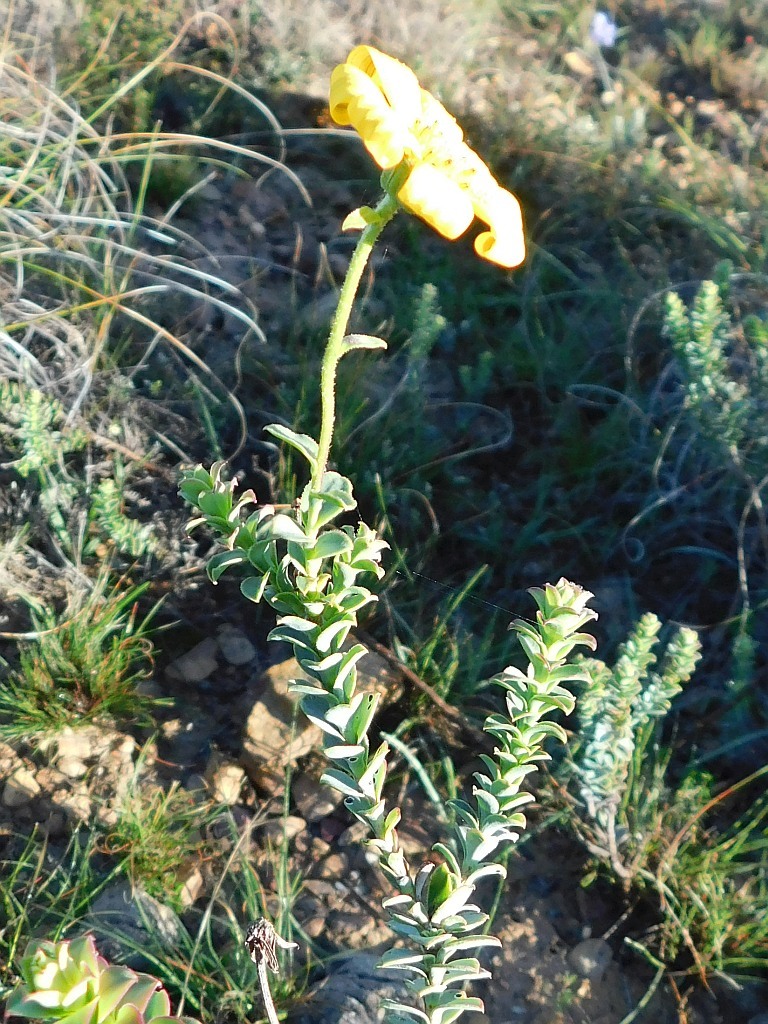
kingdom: Plantae
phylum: Tracheophyta
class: Magnoliopsida
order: Asterales
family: Asteraceae
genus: Osteospermum
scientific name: Osteospermum polygaloides
